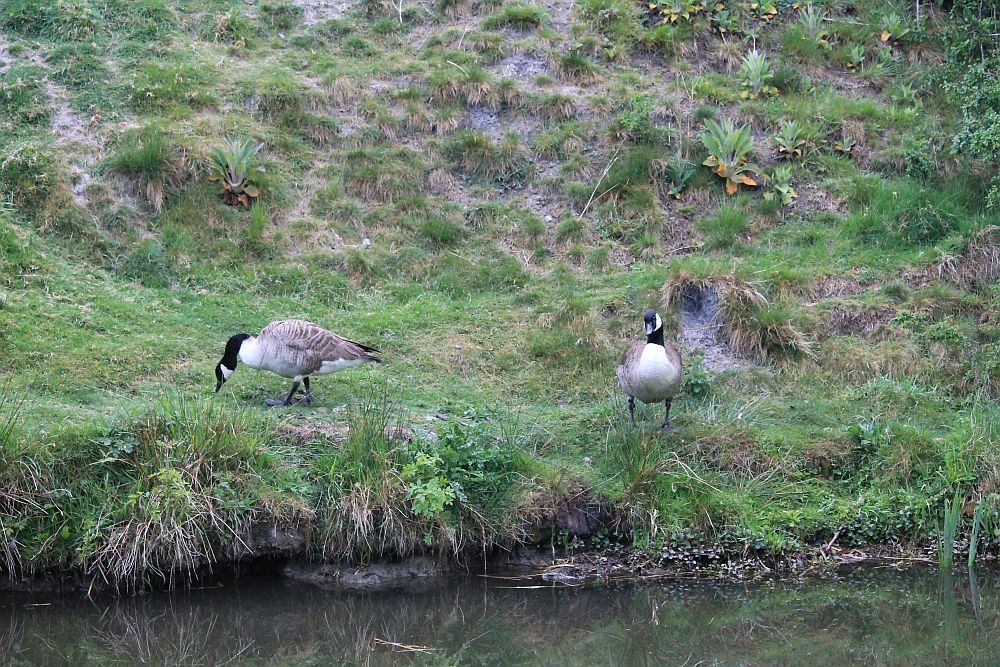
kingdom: Animalia
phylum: Chordata
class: Aves
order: Anseriformes
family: Anatidae
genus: Branta
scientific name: Branta canadensis
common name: Canada goose
